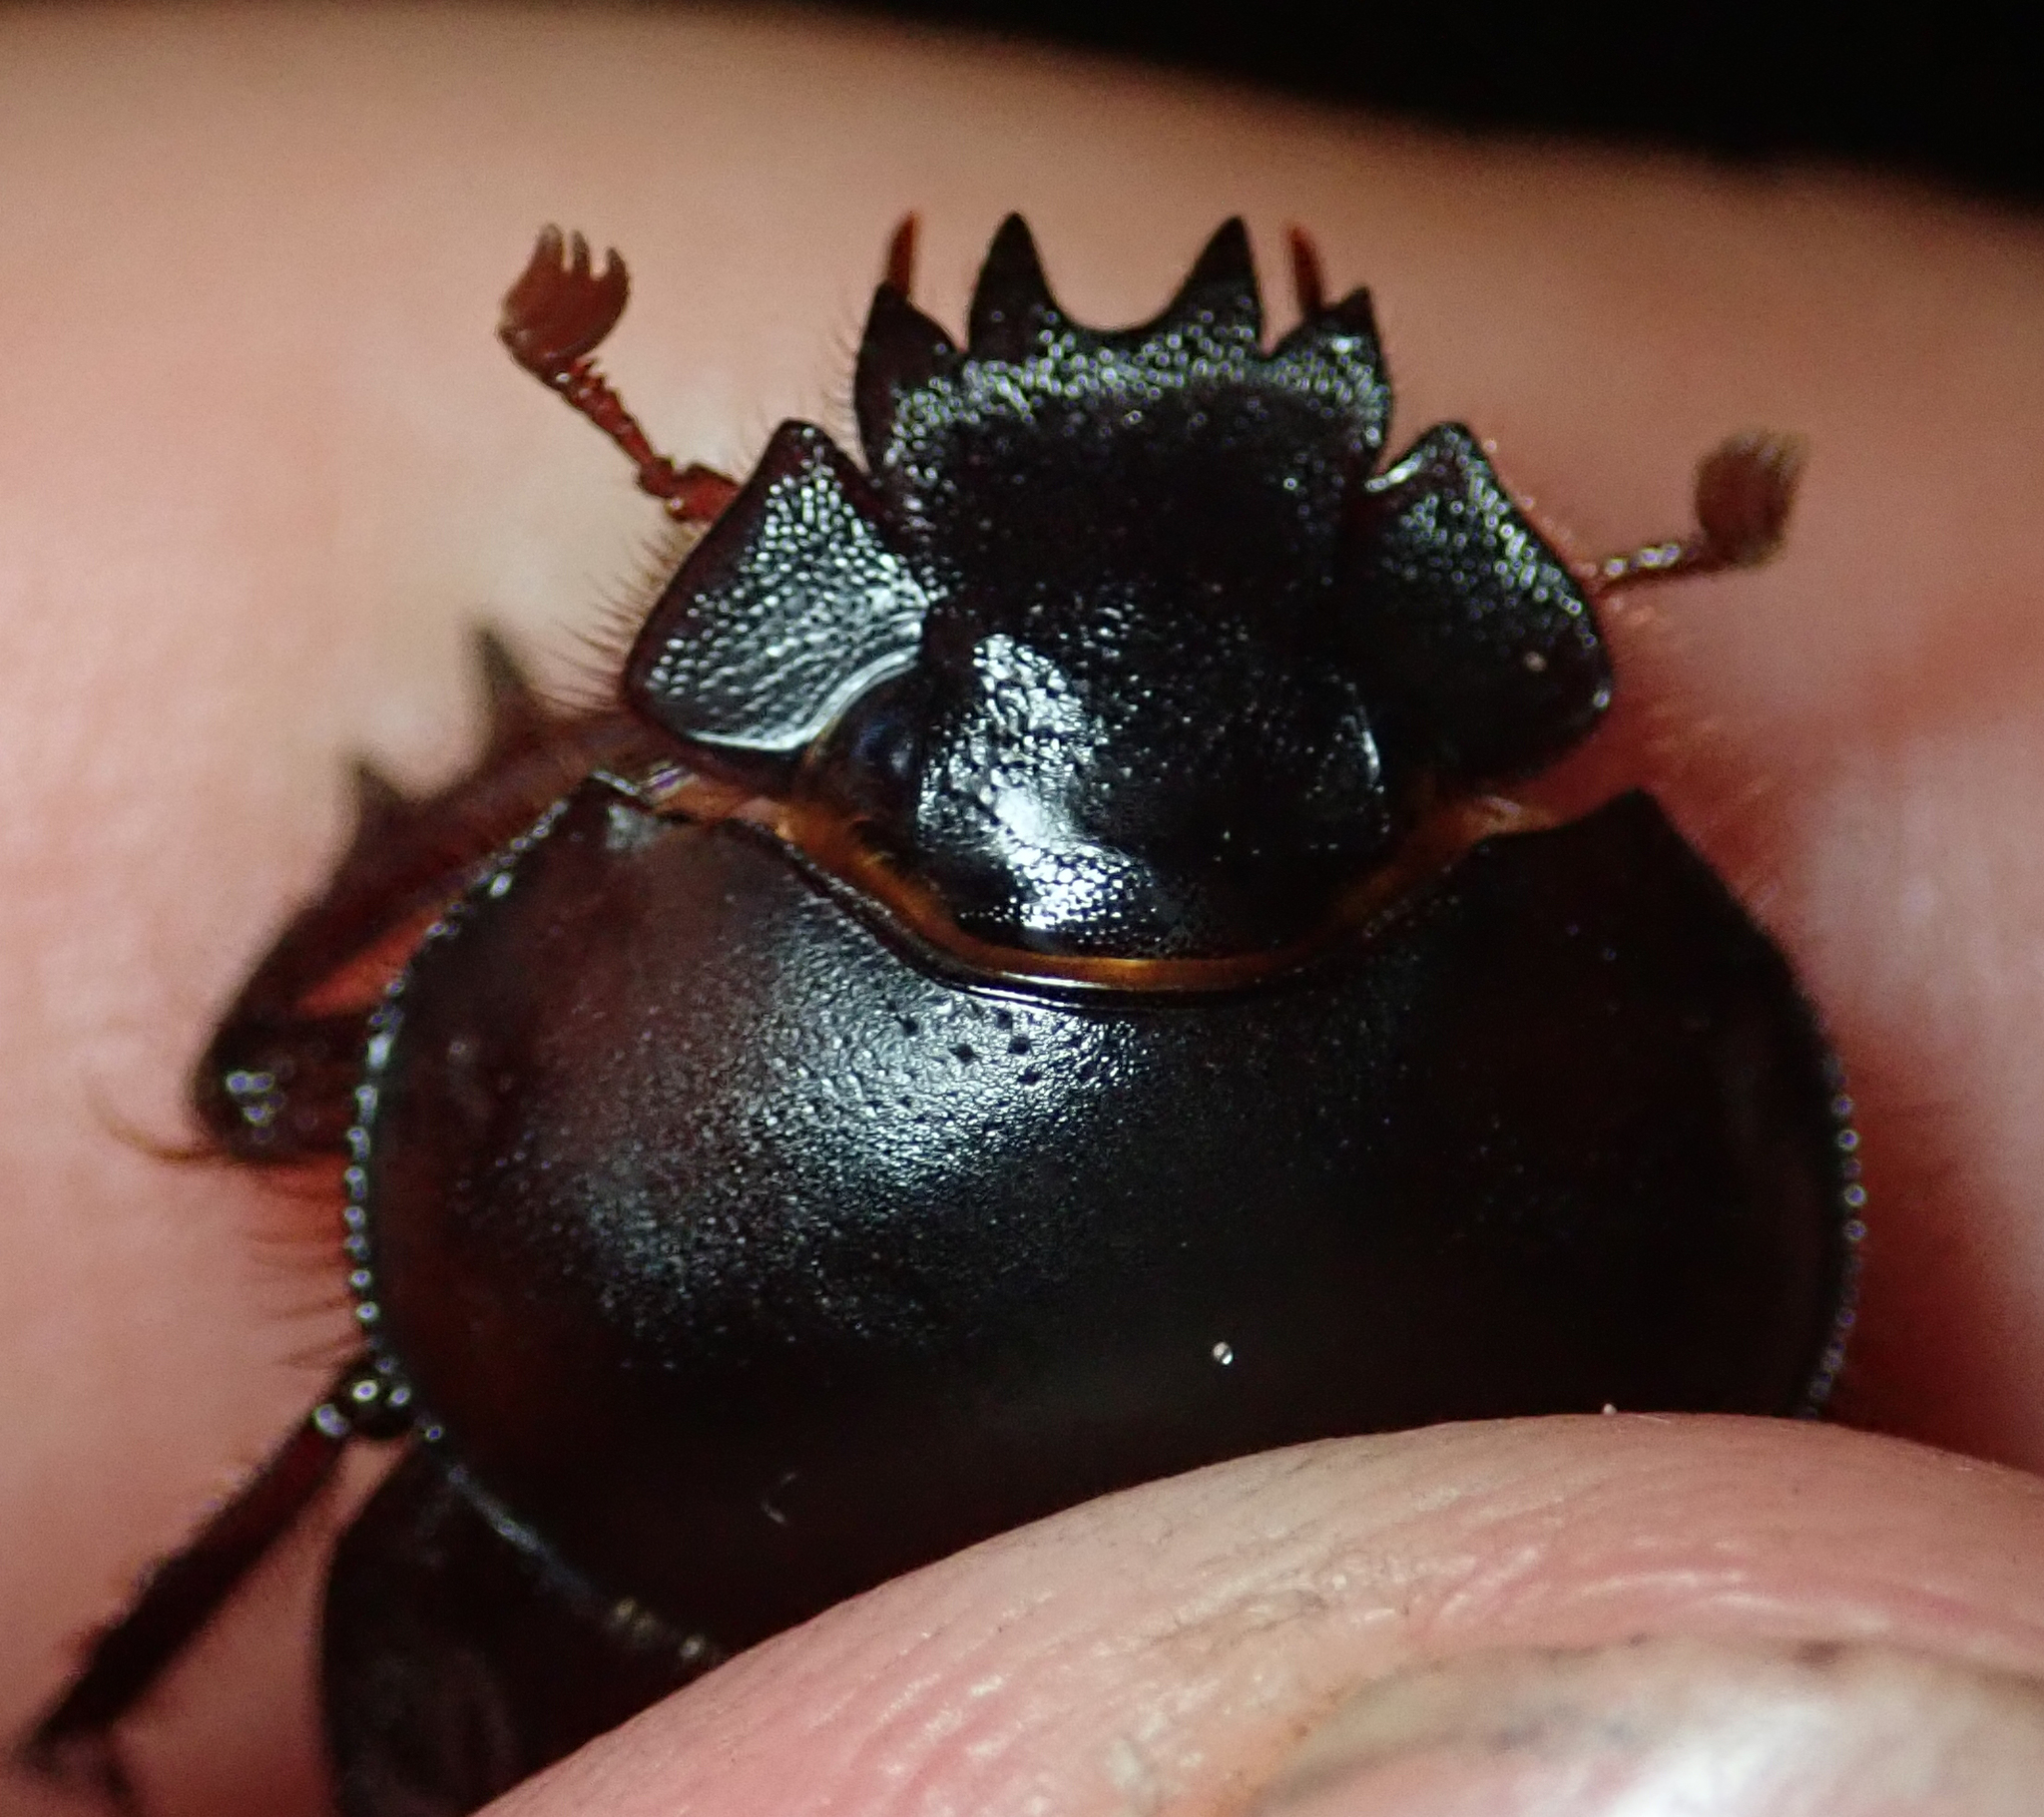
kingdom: Animalia
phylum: Arthropoda
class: Insecta
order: Coleoptera
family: Scarabaeidae
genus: Escarabaeus
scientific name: Escarabaeus remii
